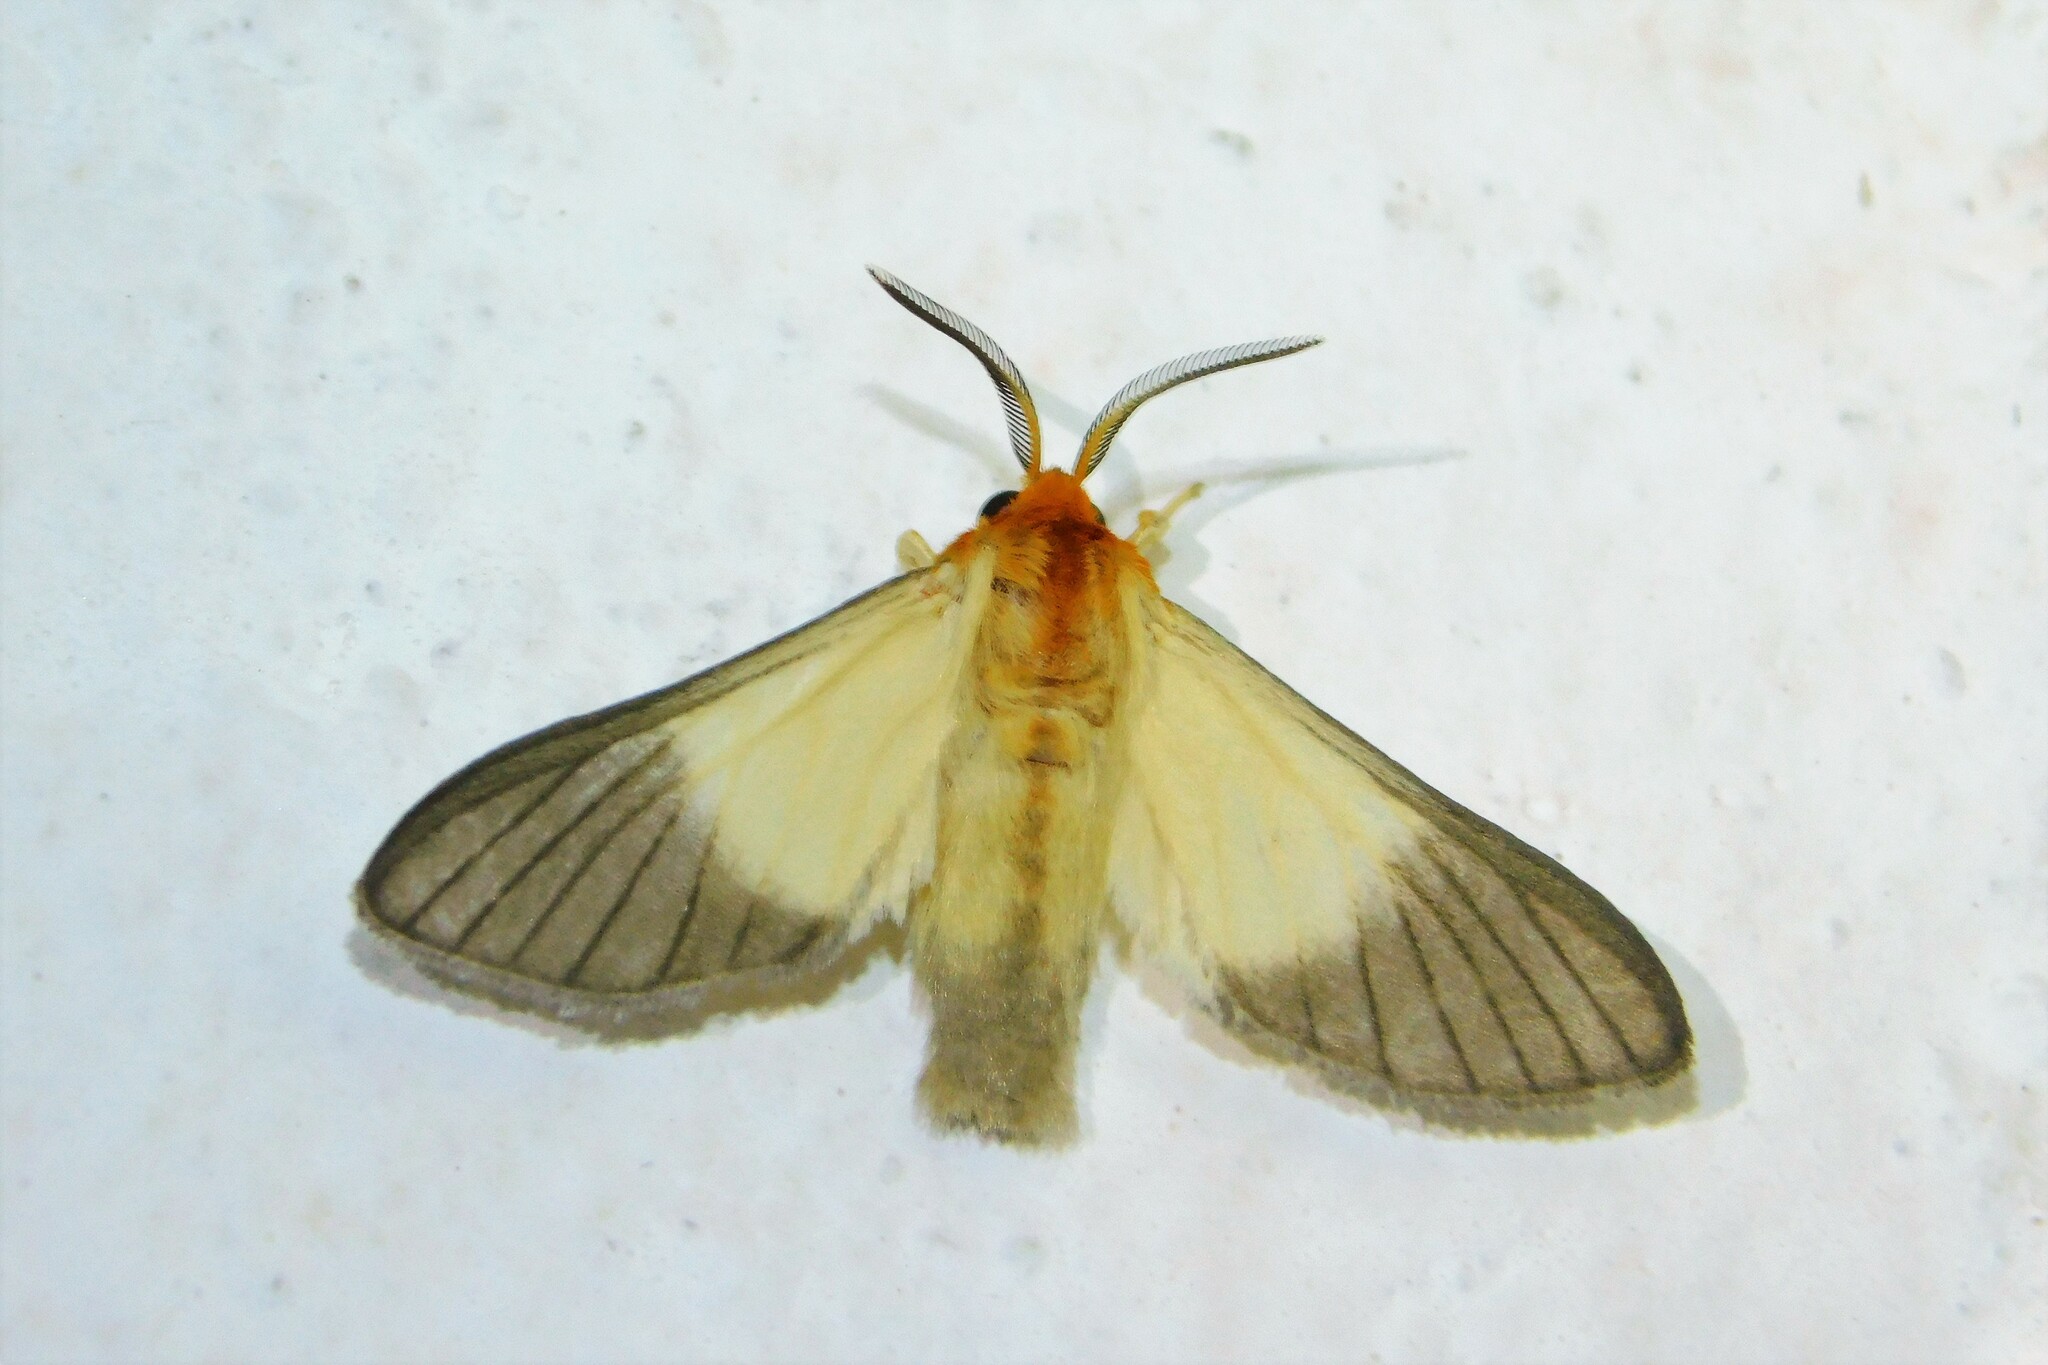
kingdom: Animalia
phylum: Arthropoda
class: Insecta
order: Lepidoptera
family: Erebidae
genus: Anapisa
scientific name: Anapisa melaleuca
